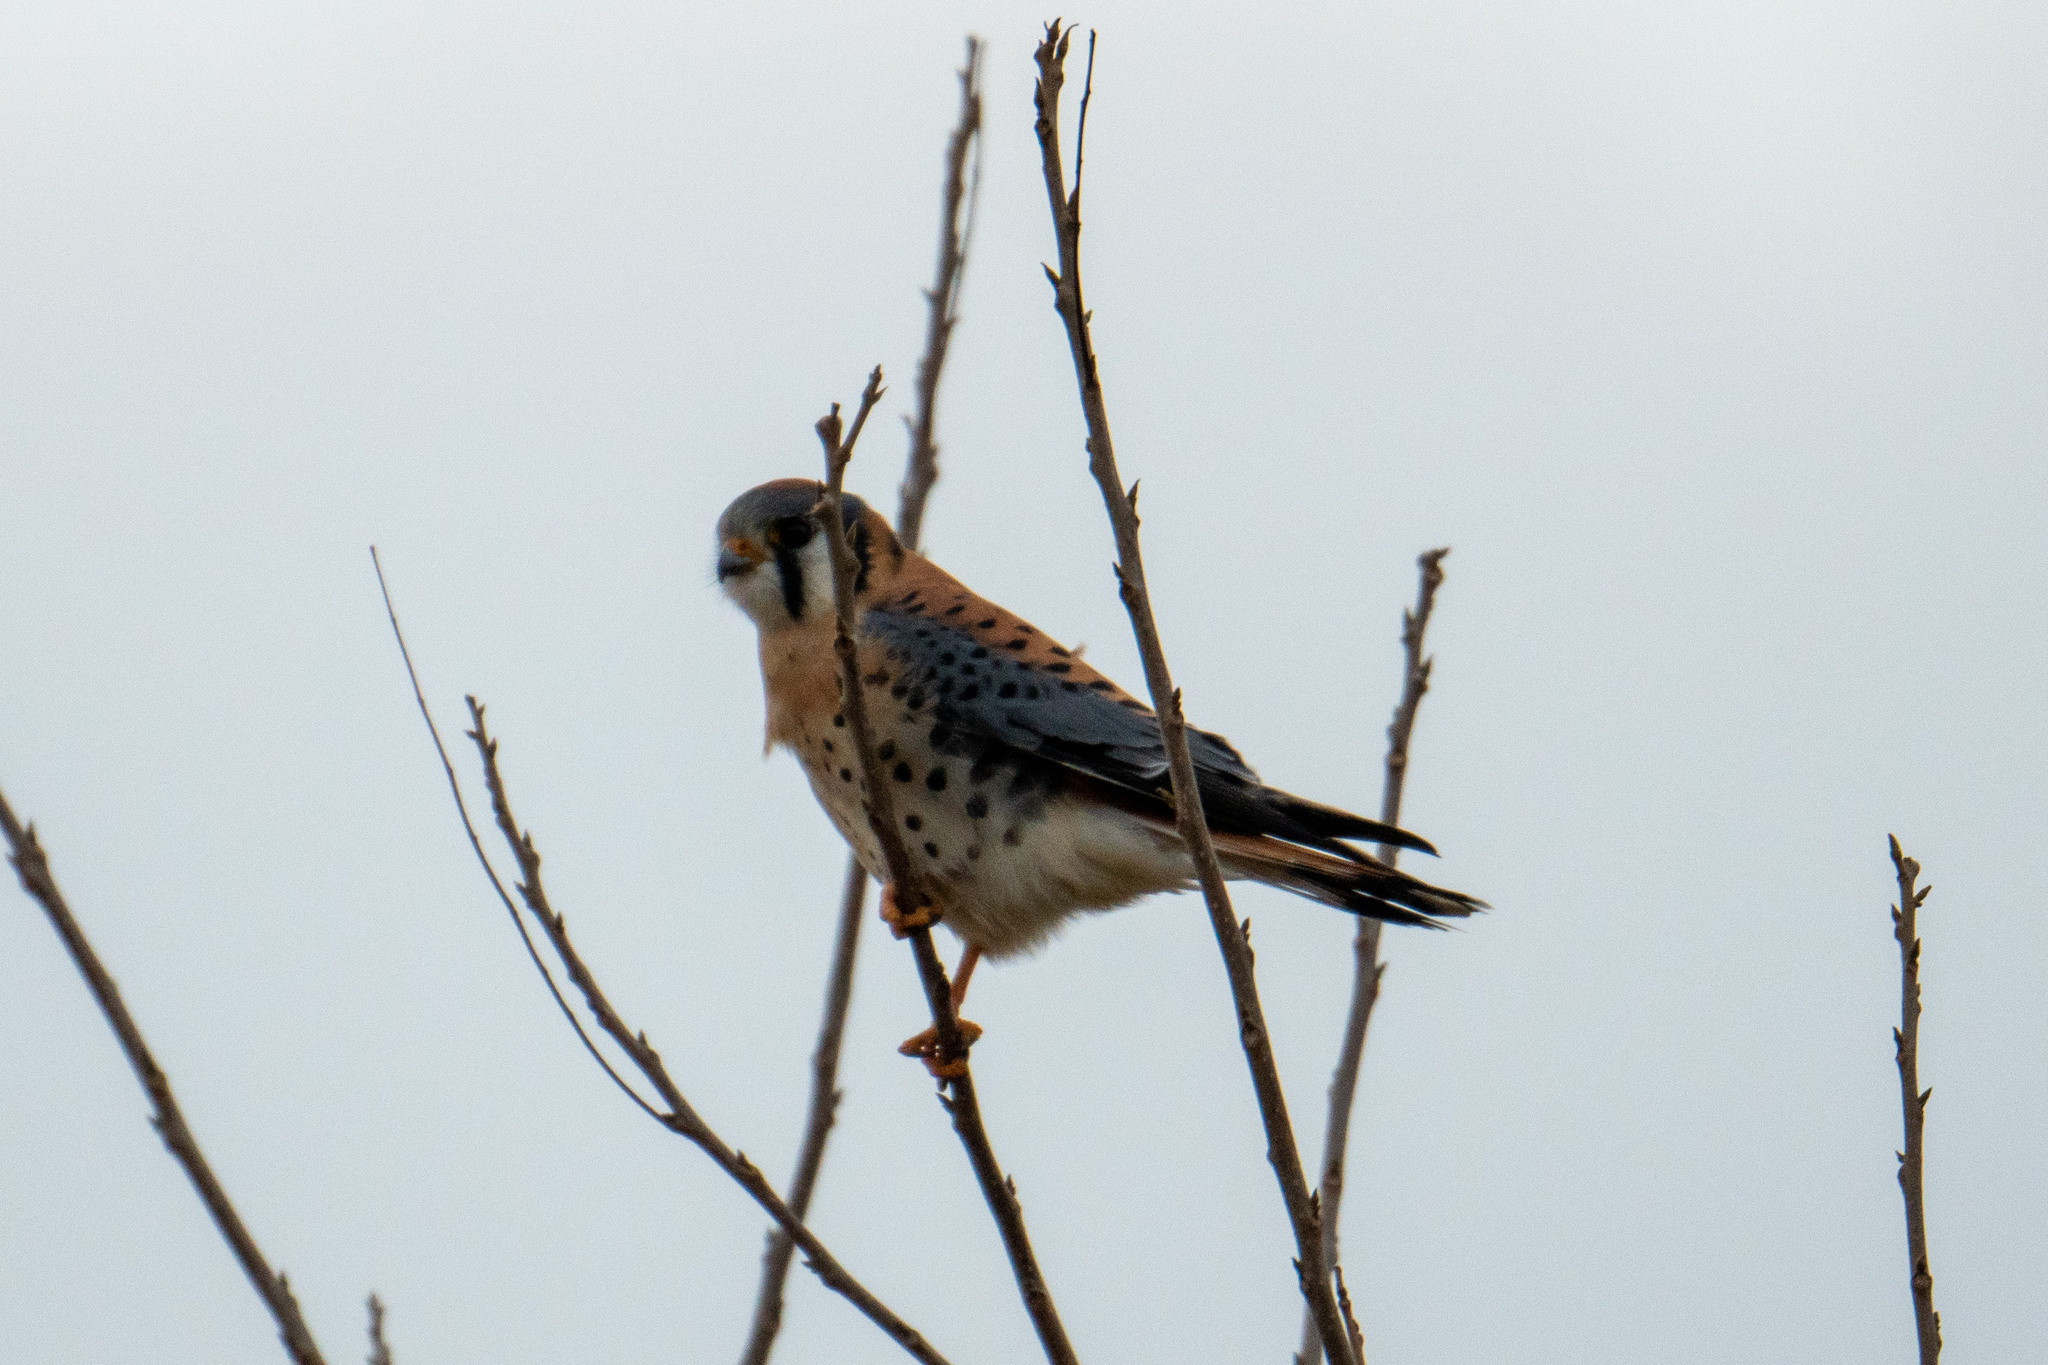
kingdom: Animalia
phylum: Chordata
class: Aves
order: Falconiformes
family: Falconidae
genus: Falco
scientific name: Falco sparverius
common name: American kestrel
